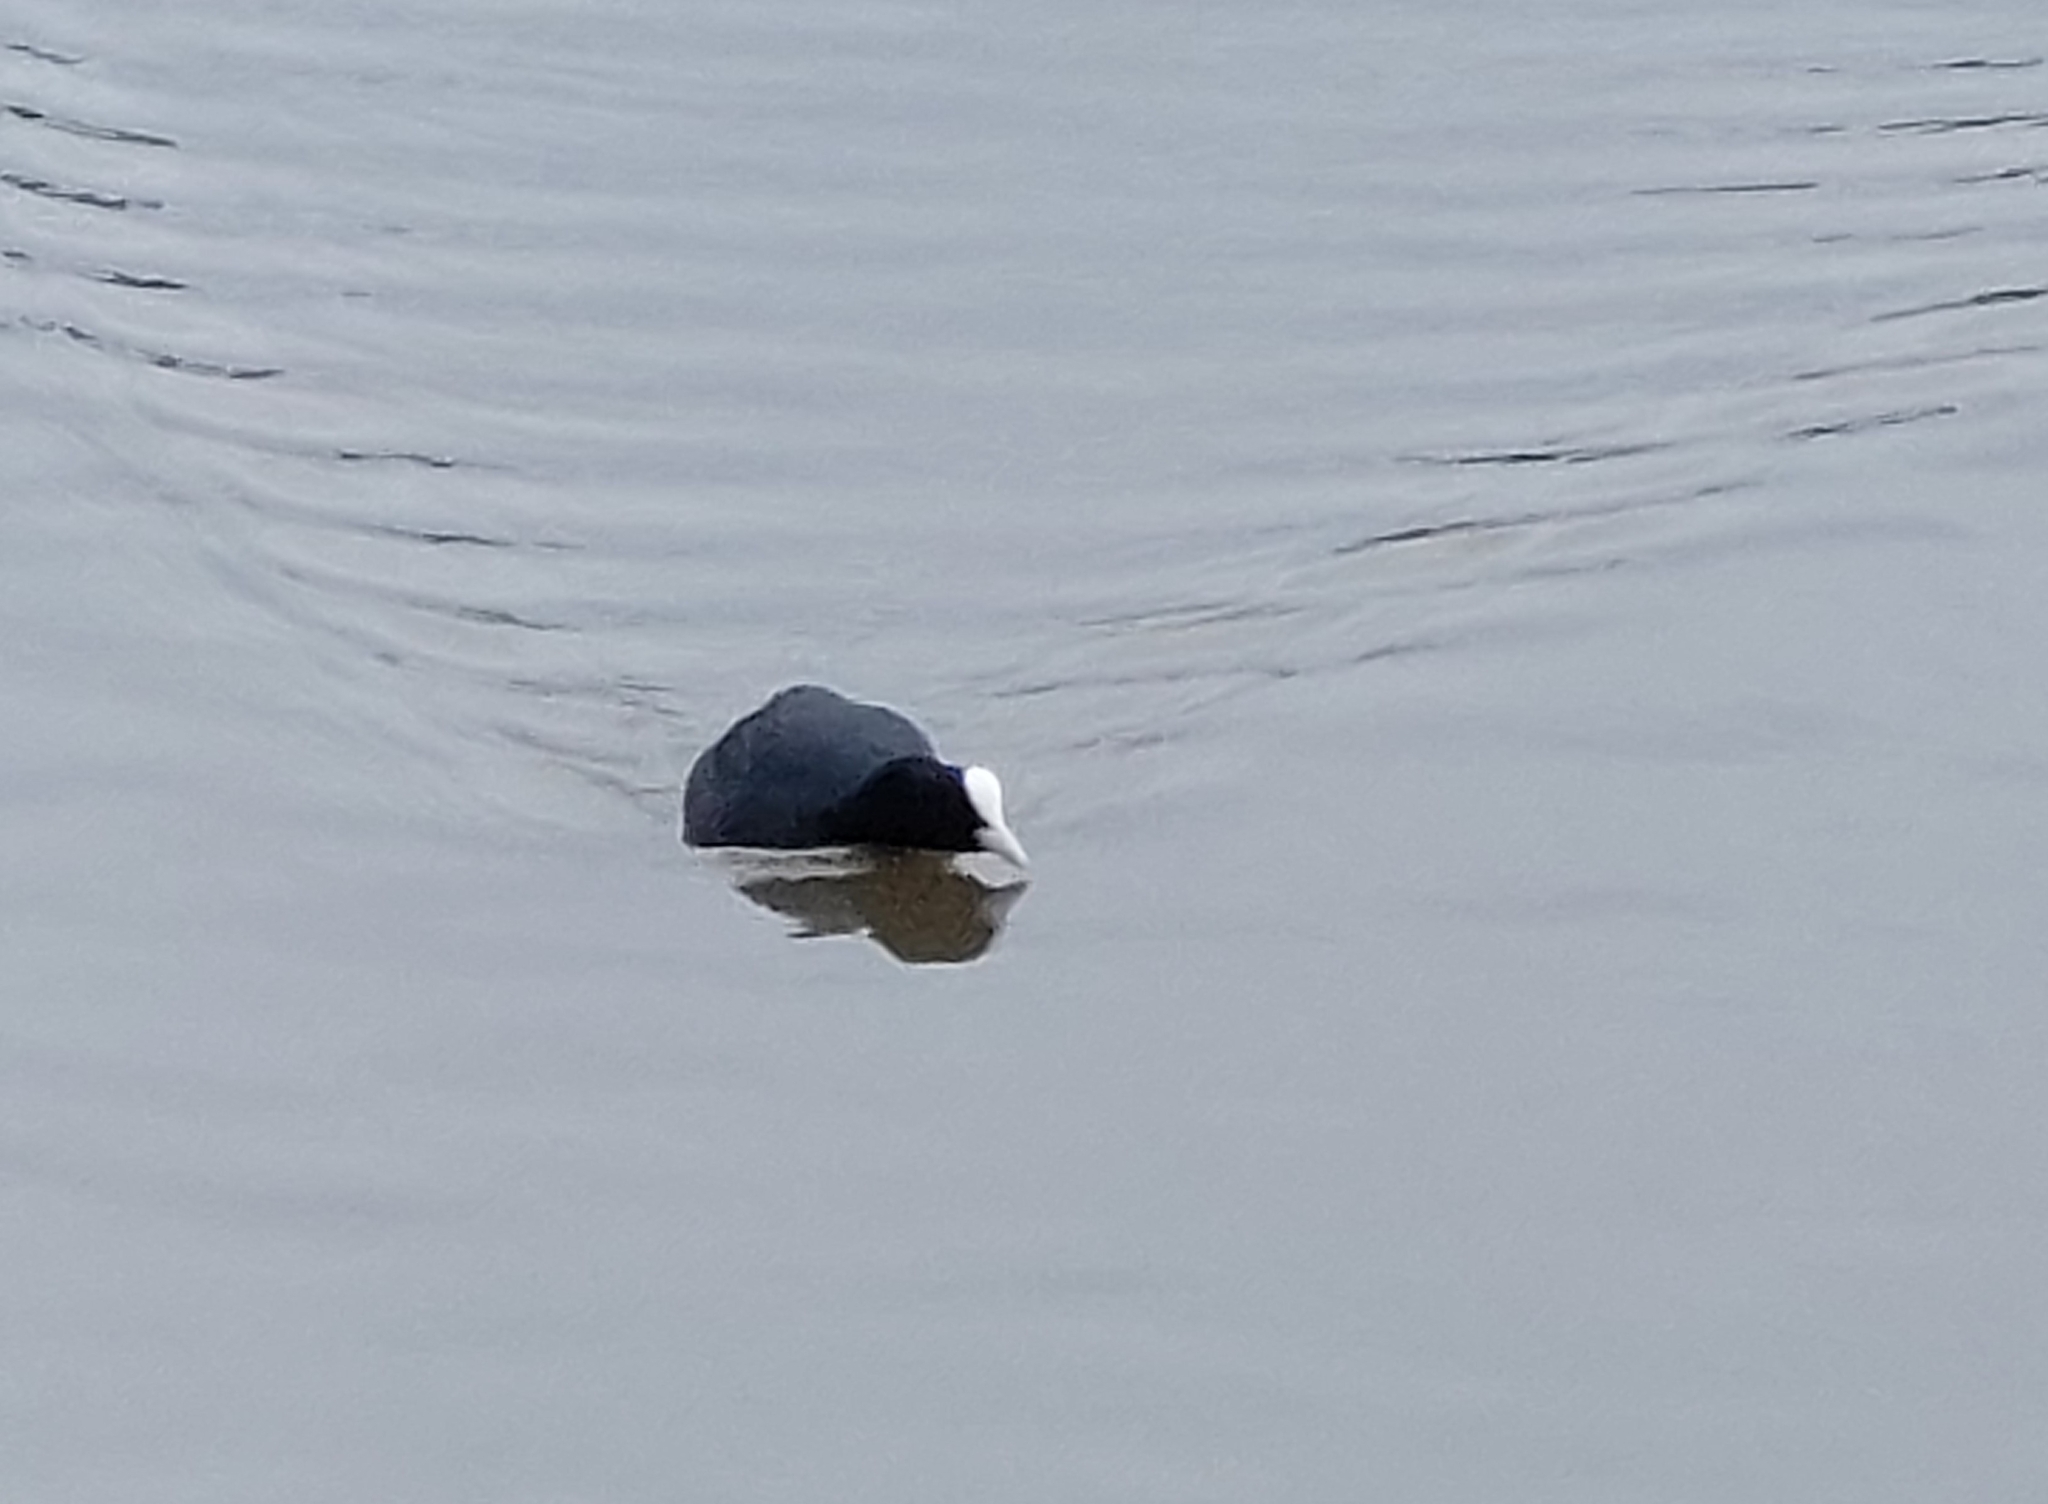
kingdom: Animalia
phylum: Chordata
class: Aves
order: Gruiformes
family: Rallidae
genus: Fulica
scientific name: Fulica atra
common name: Eurasian coot
